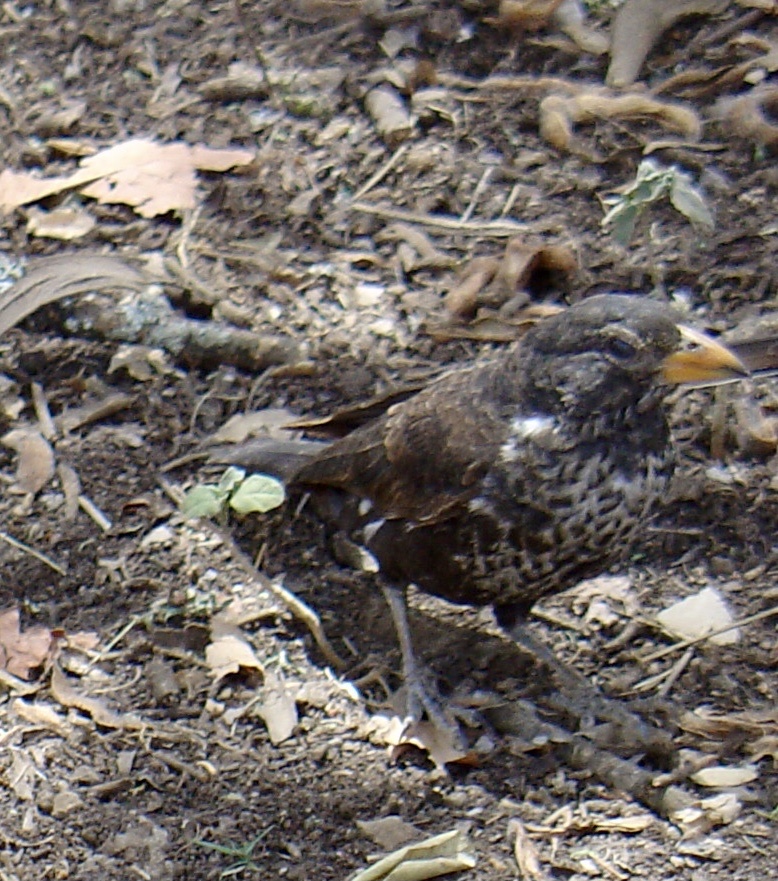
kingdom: Animalia
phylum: Chordata
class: Aves
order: Passeriformes
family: Ploceidae
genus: Bubalornis
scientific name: Bubalornis niger
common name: Red-billed buffalo weaver
